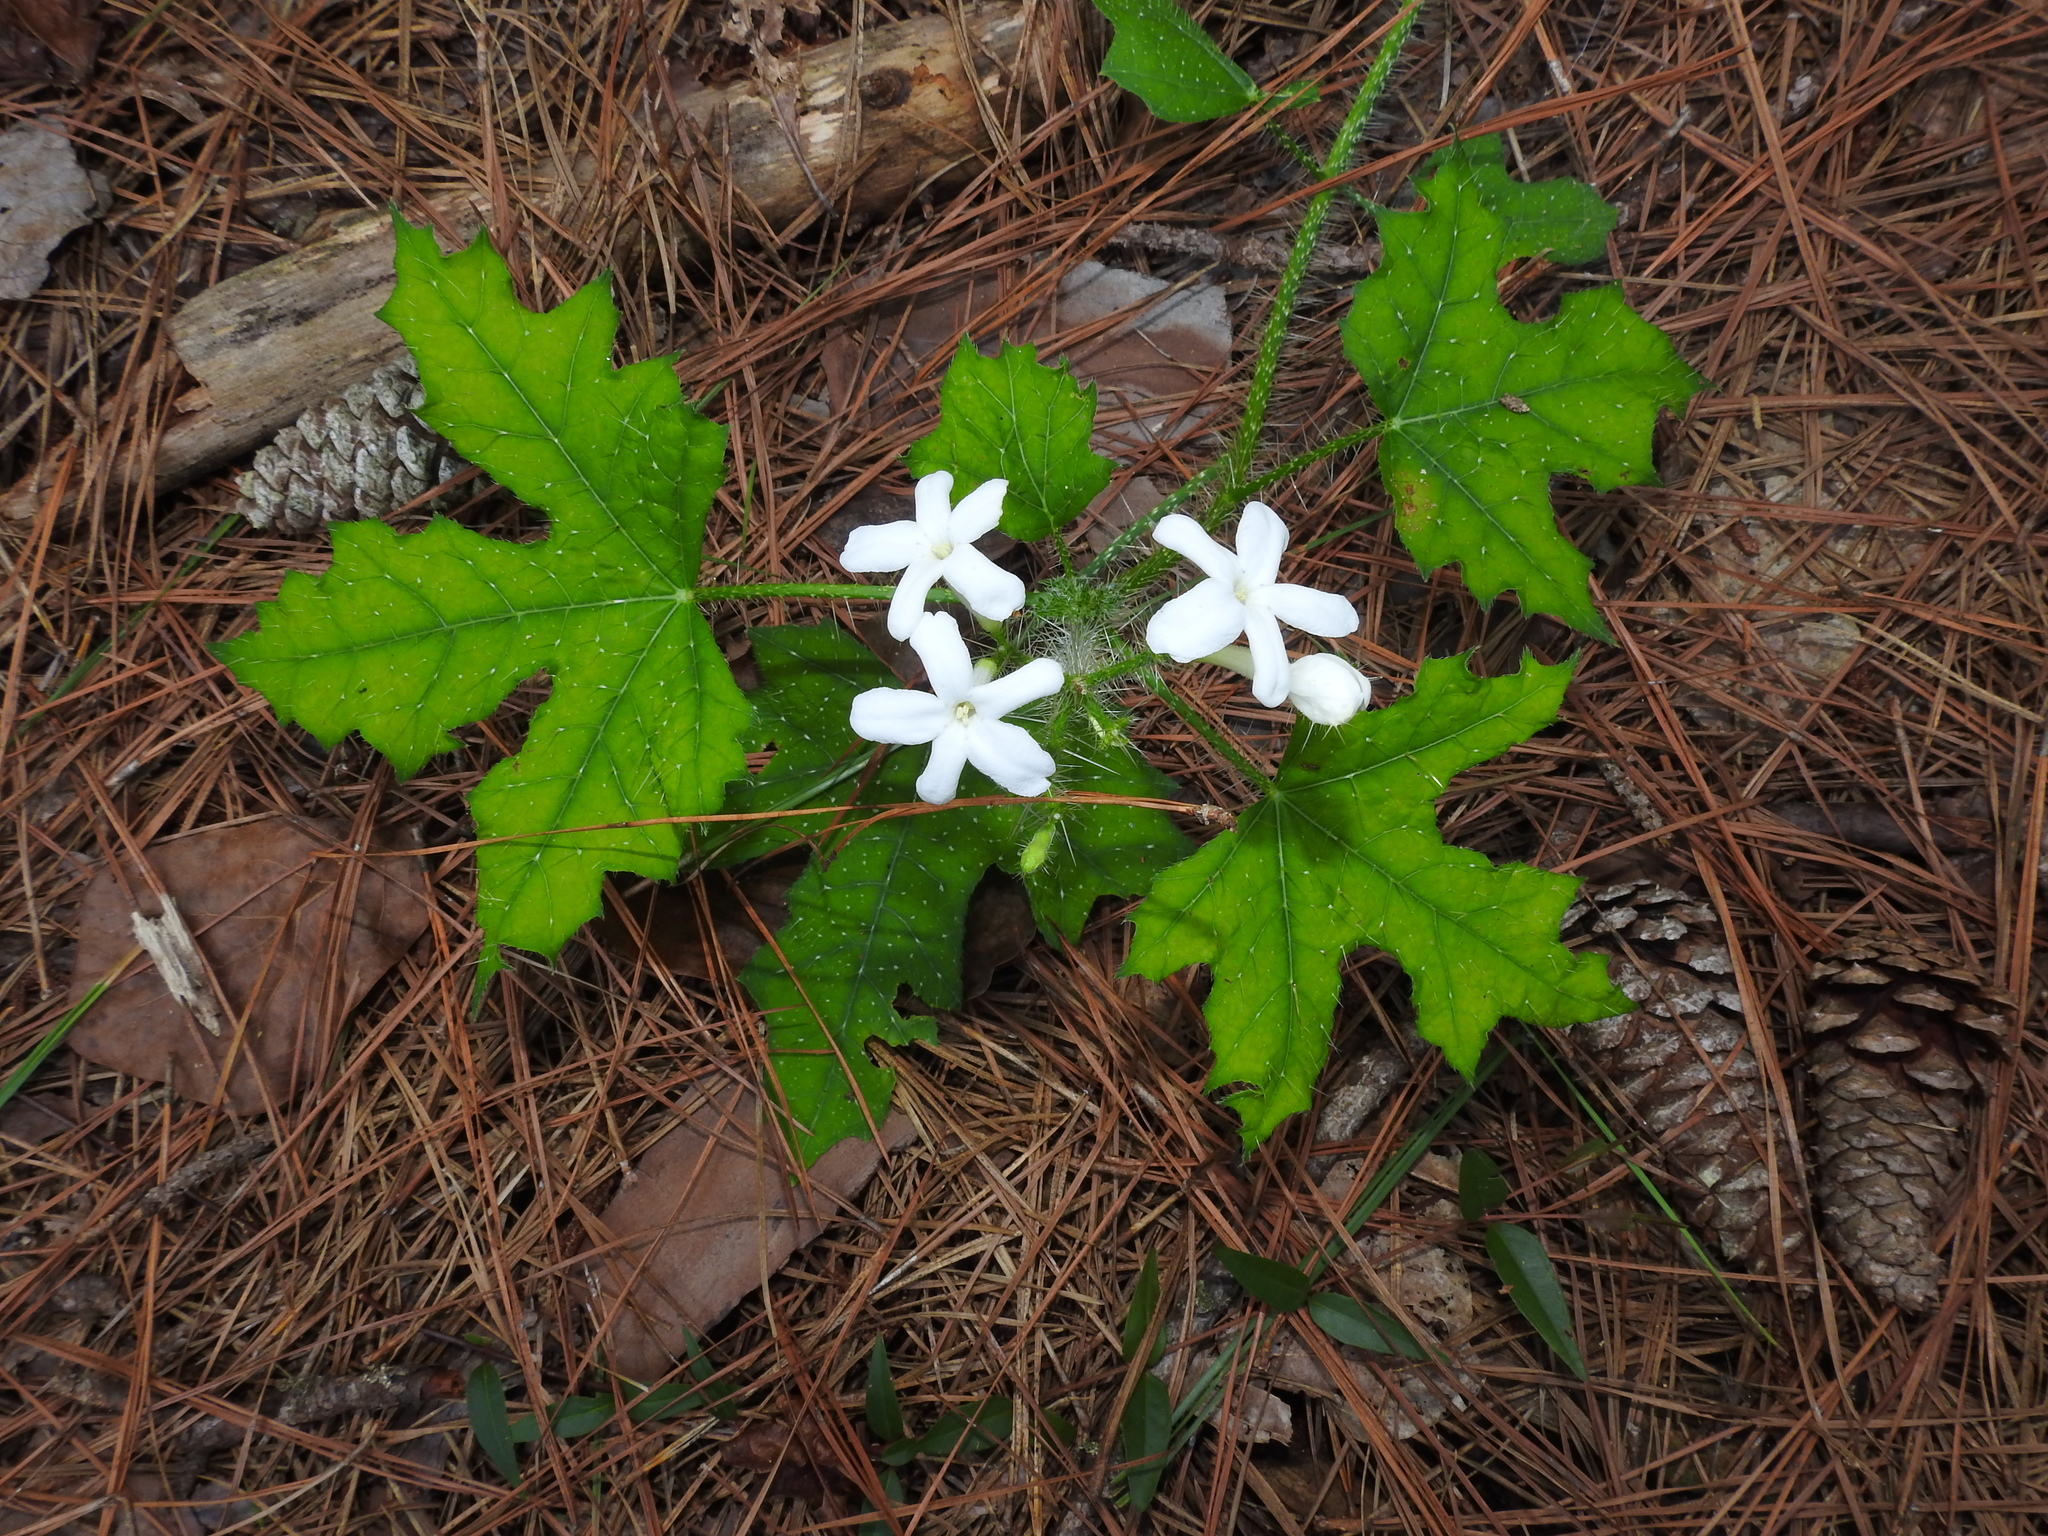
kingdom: Plantae
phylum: Tracheophyta
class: Magnoliopsida
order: Malpighiales
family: Euphorbiaceae
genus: Cnidoscolus
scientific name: Cnidoscolus texanus
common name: Texas bull-nettle
